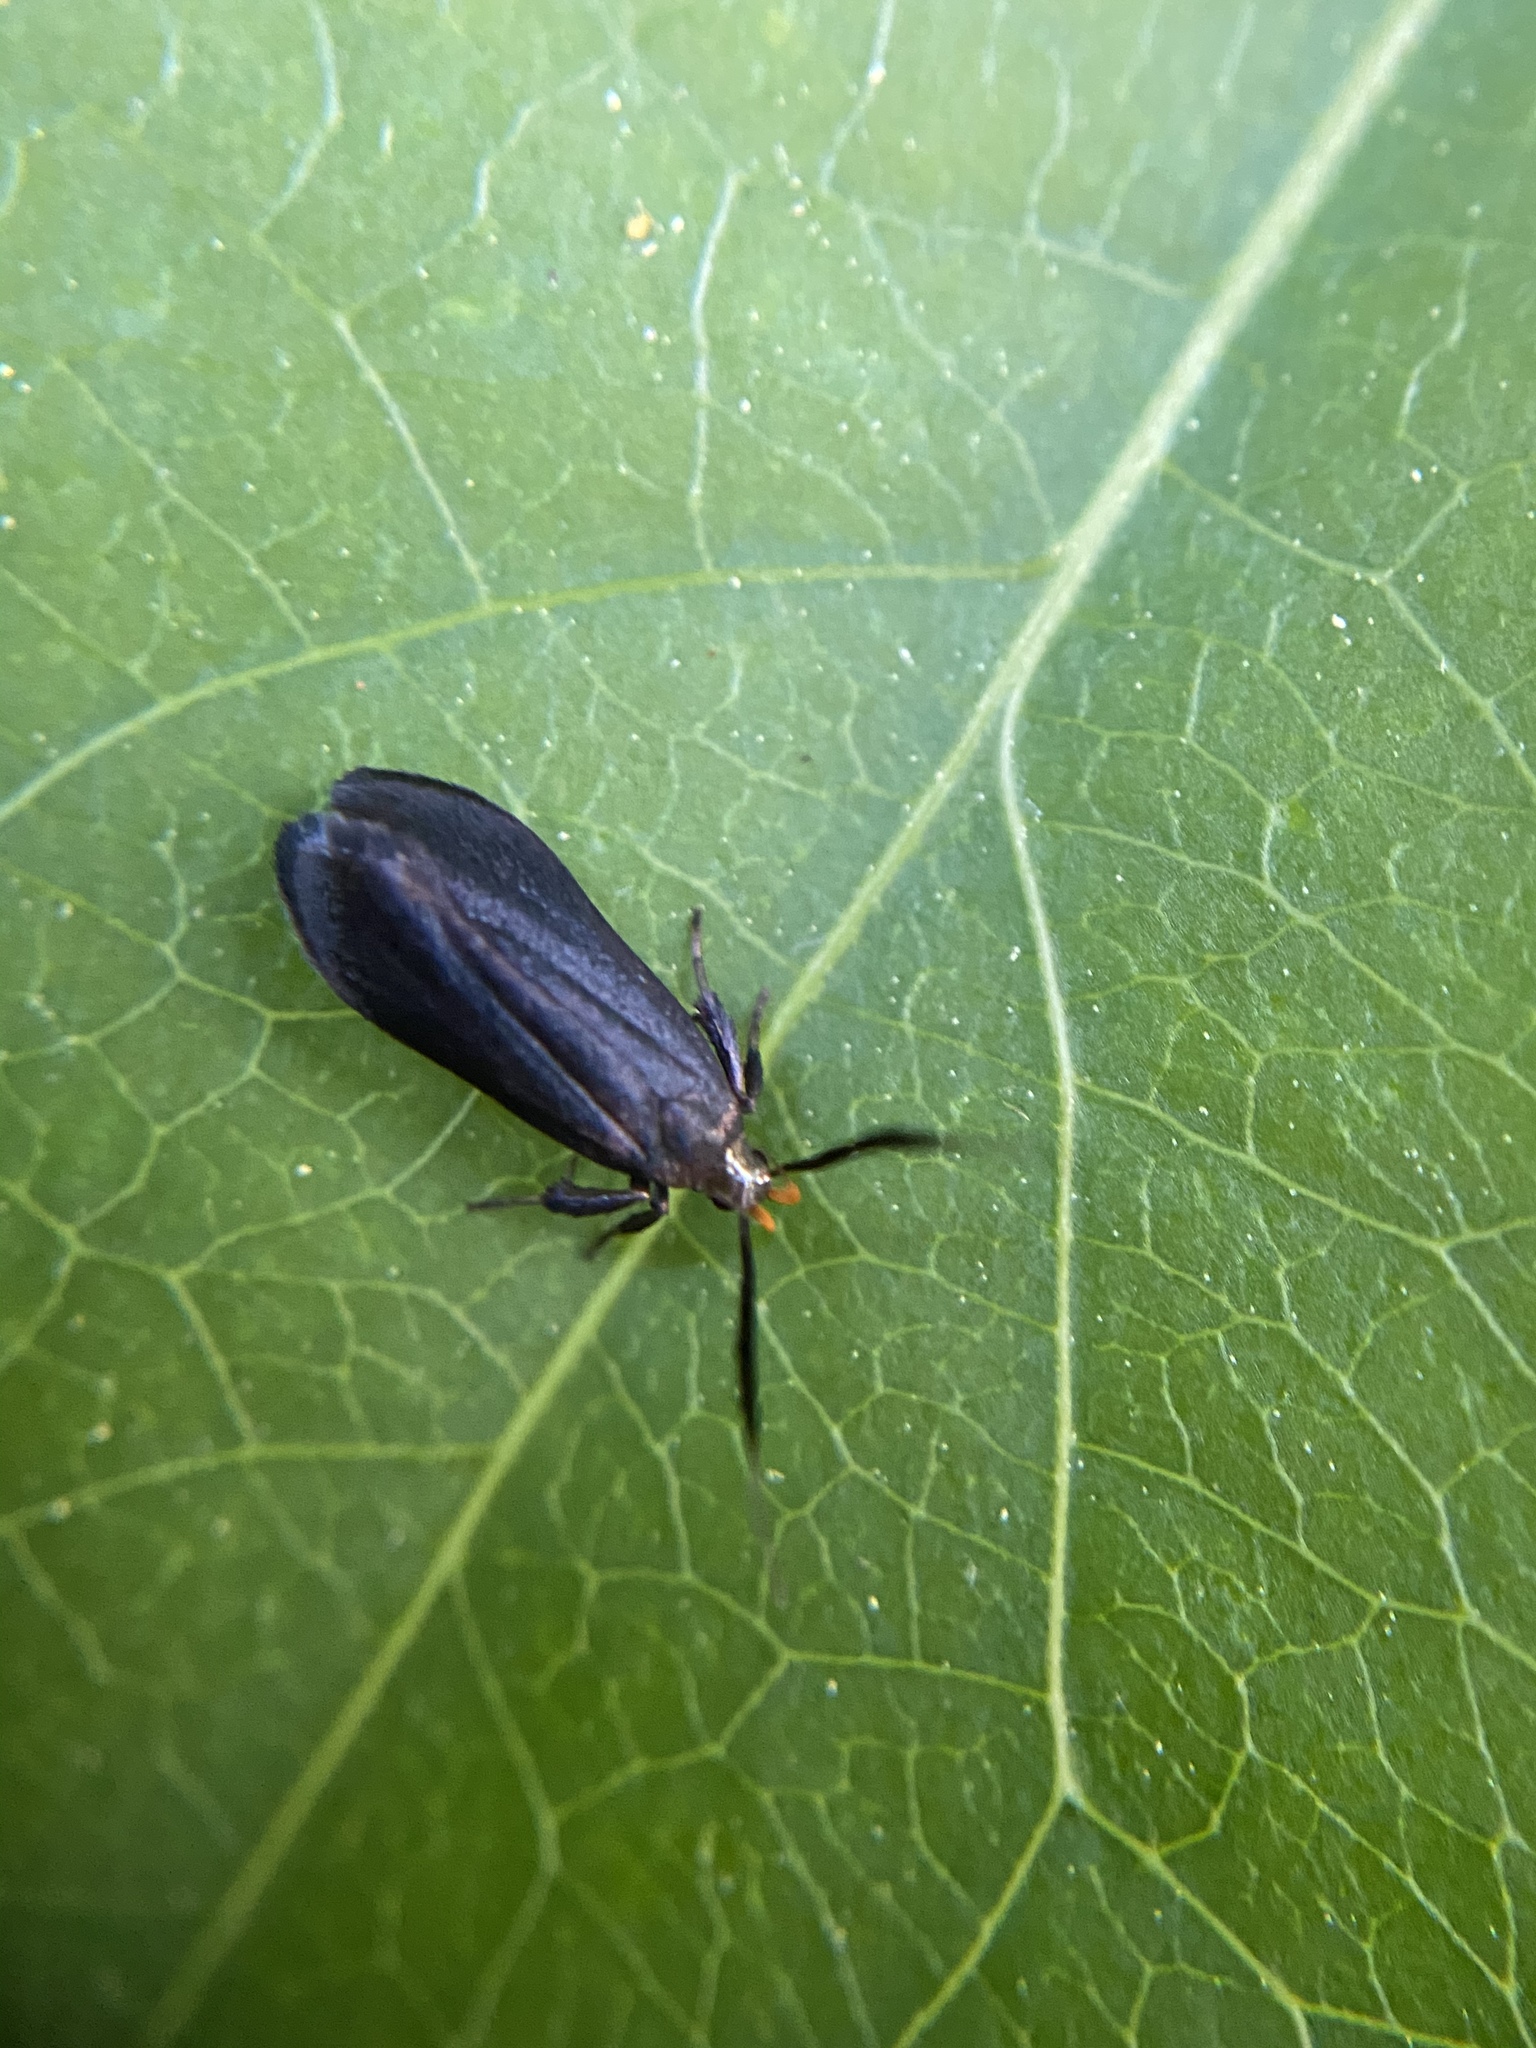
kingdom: Animalia
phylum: Arthropoda
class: Insecta
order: Lepidoptera
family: Gelechiidae
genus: Dichomeris
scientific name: Dichomeris nonstrigella
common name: Little devil moth
